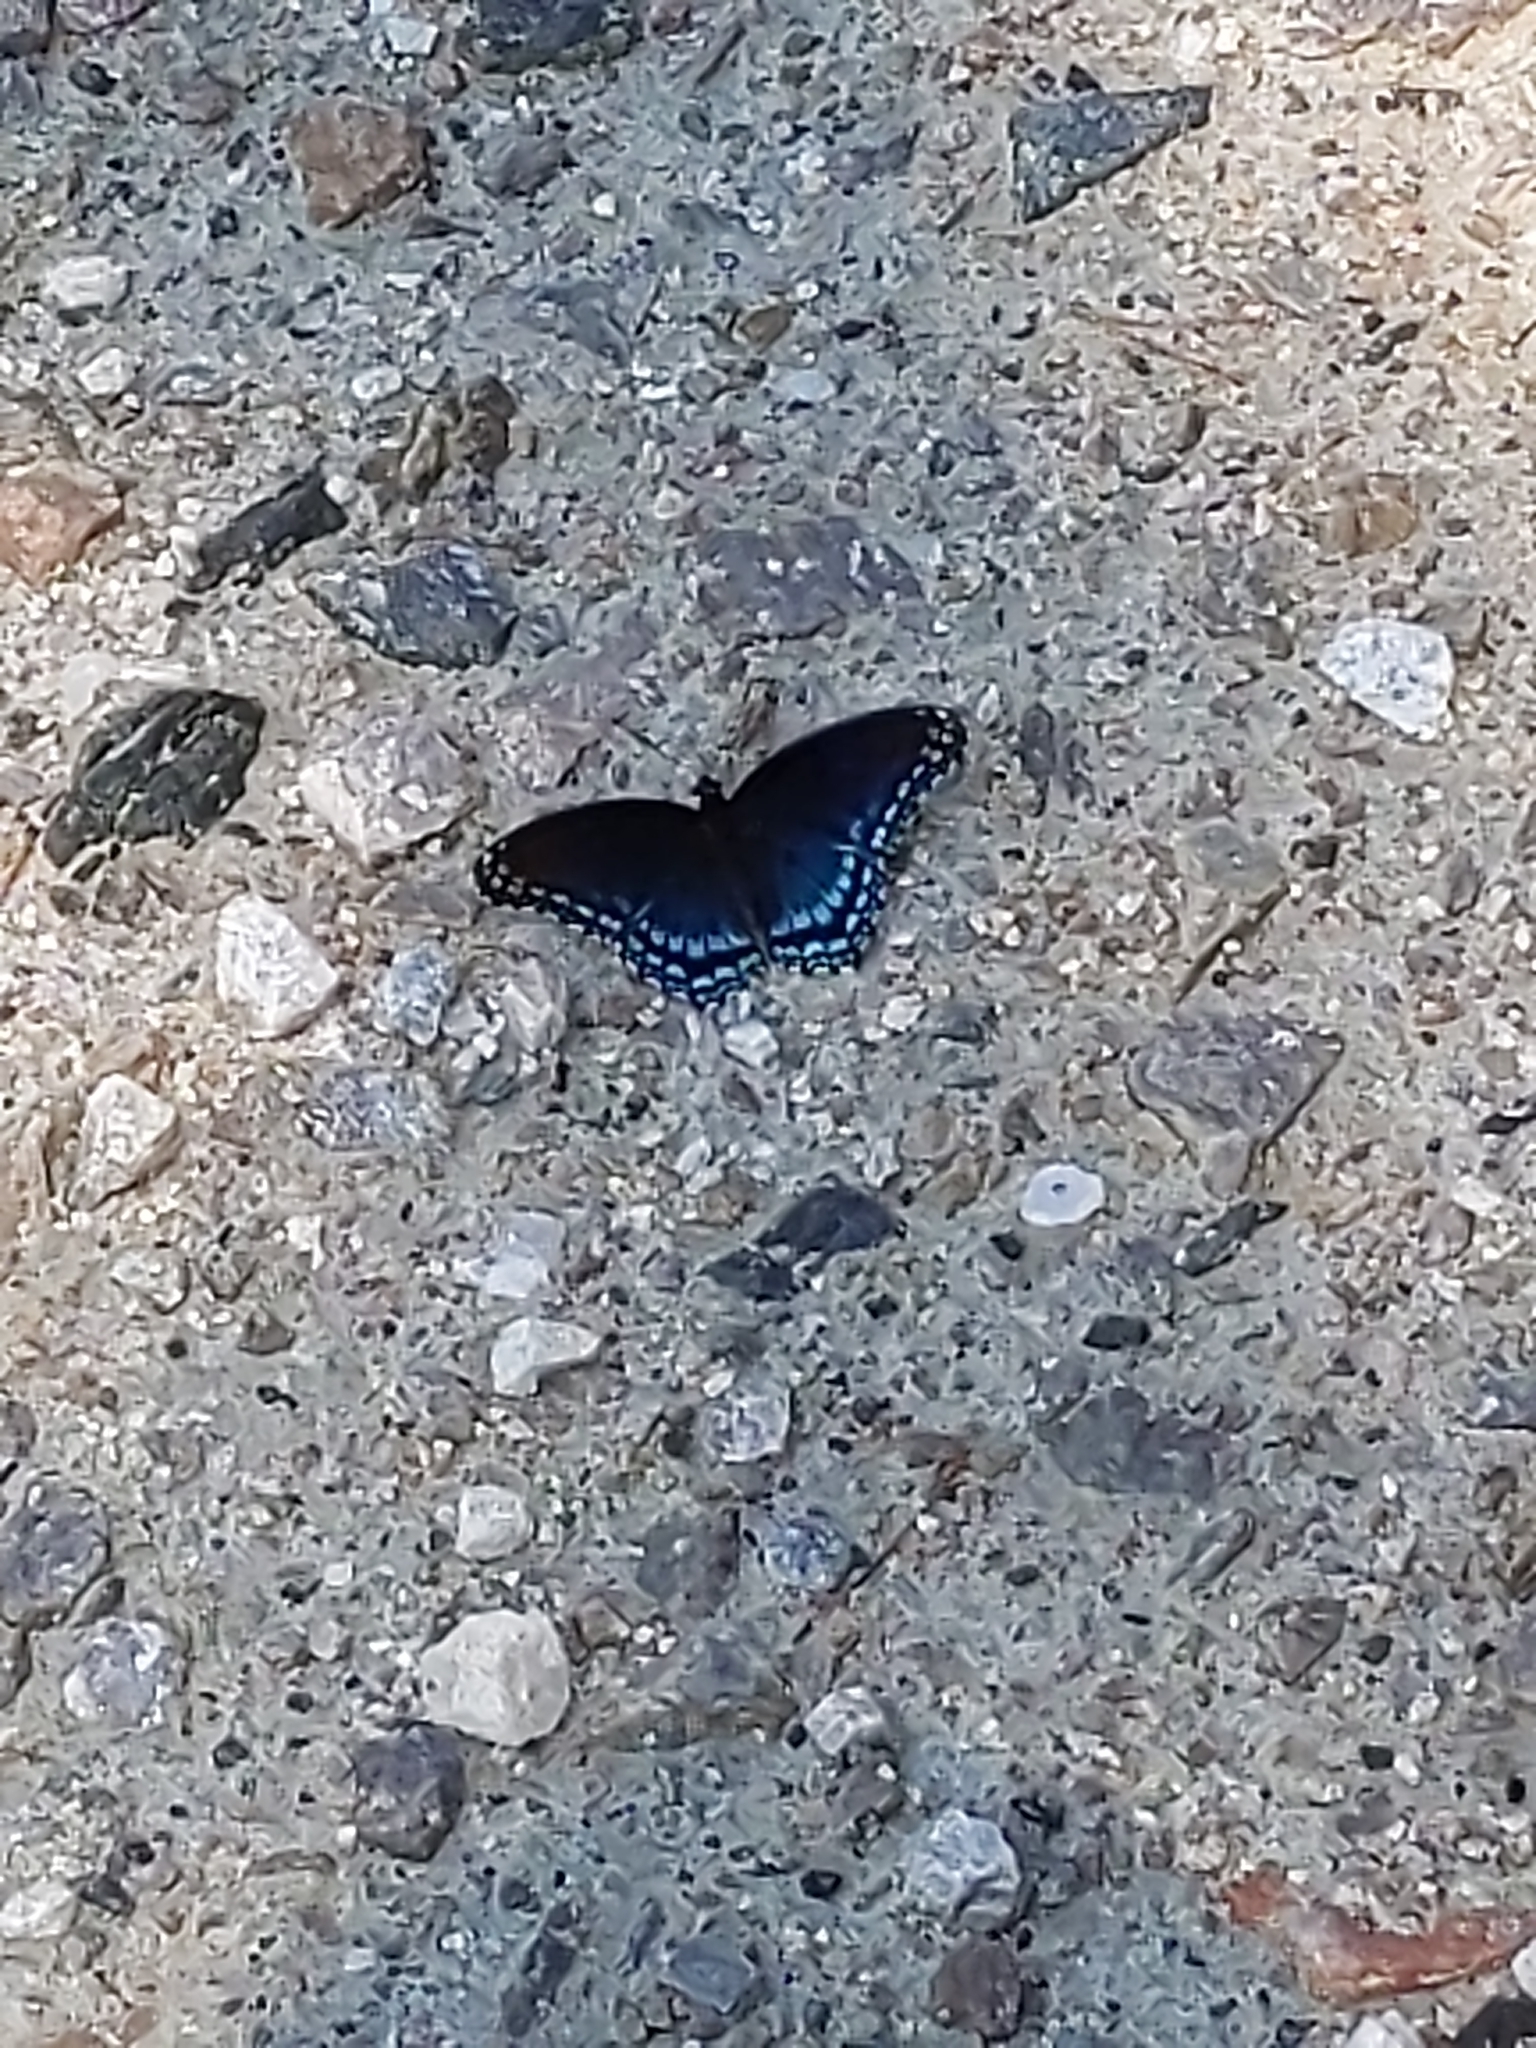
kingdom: Animalia
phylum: Arthropoda
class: Insecta
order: Lepidoptera
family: Nymphalidae
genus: Limenitis
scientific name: Limenitis astyanax
